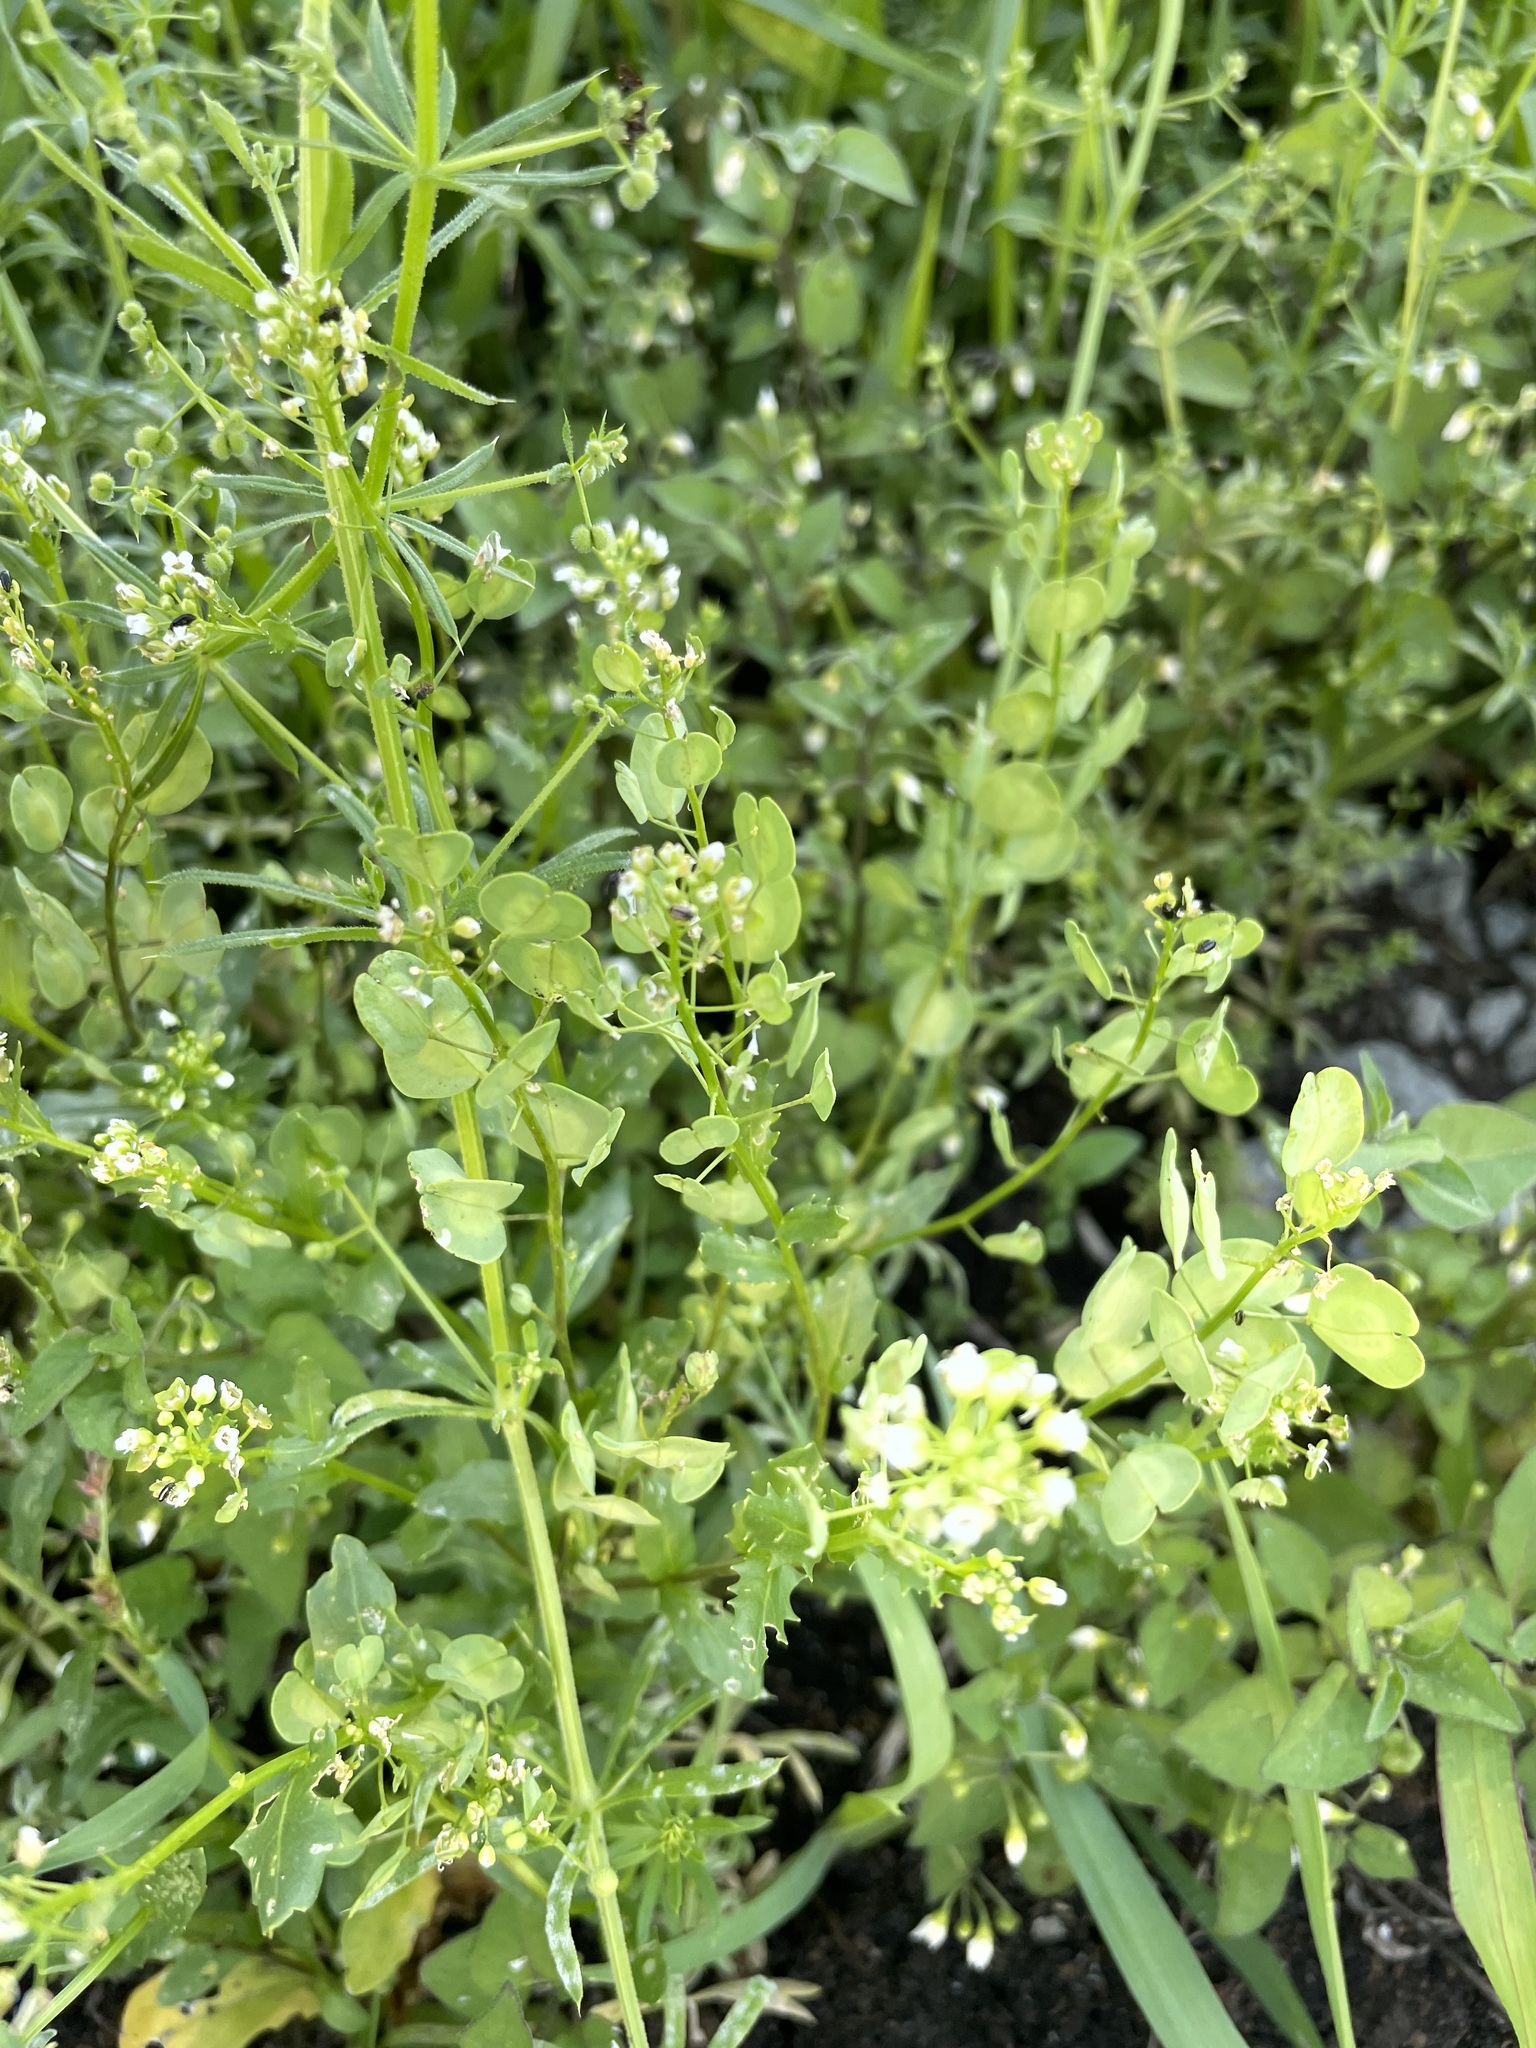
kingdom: Plantae
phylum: Tracheophyta
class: Magnoliopsida
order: Brassicales
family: Brassicaceae
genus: Thlaspi
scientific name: Thlaspi arvense
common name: Field pennycress
